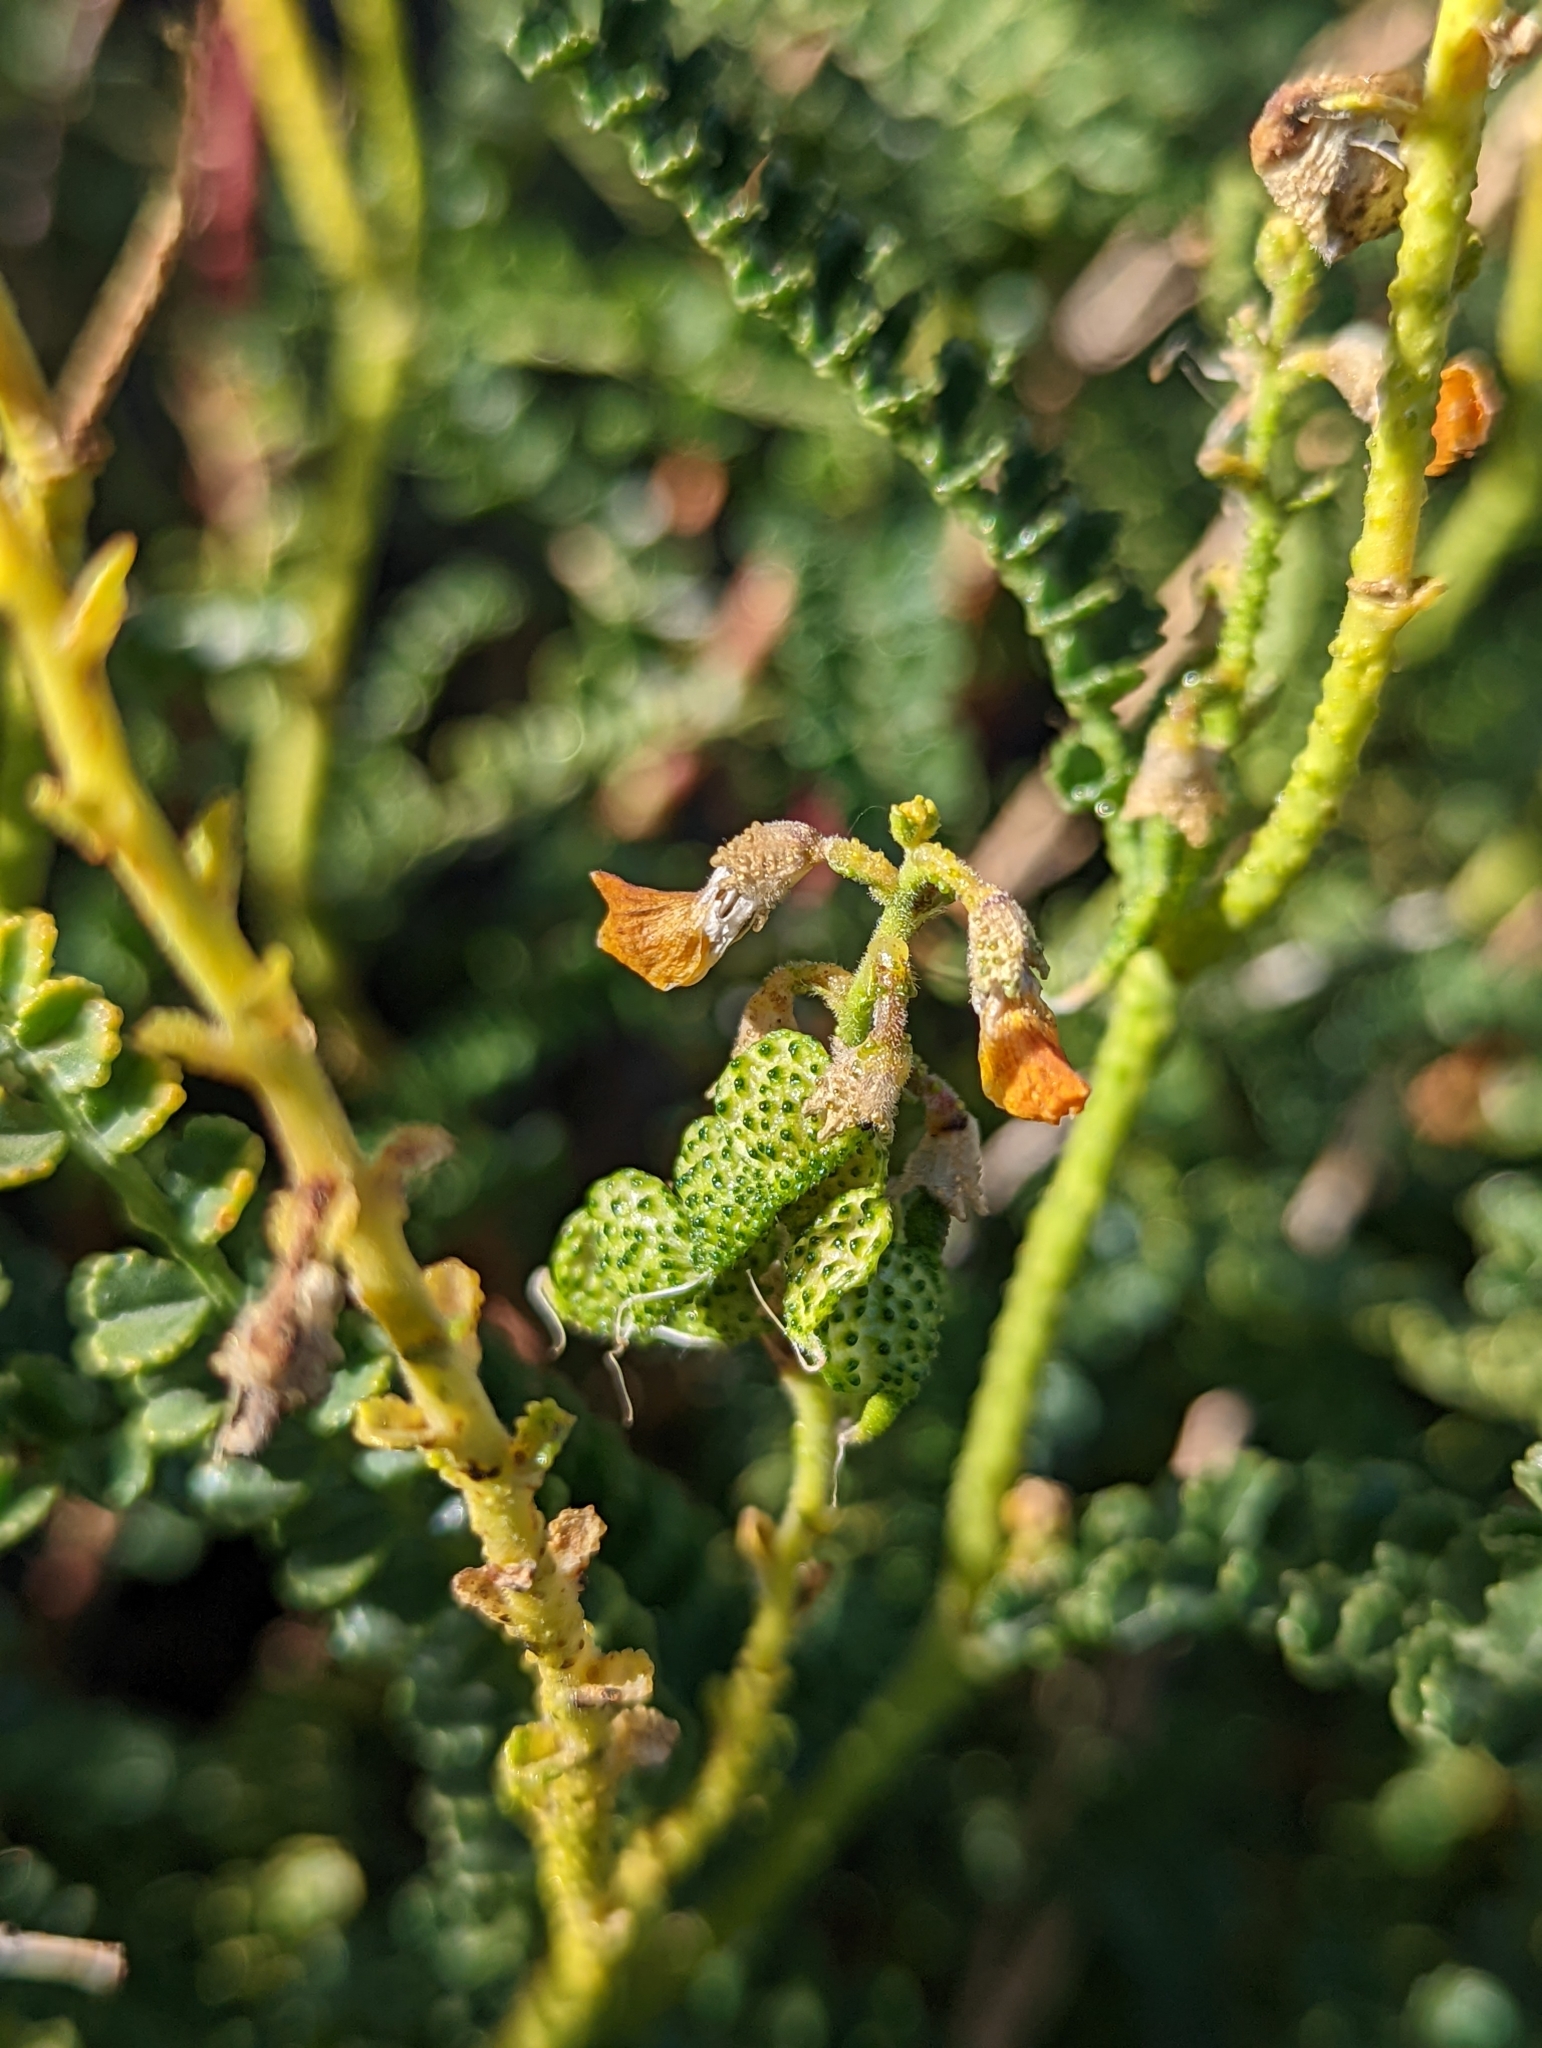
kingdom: Plantae
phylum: Tracheophyta
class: Magnoliopsida
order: Fabales
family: Fabaceae
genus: Adesmia
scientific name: Adesmia boronioides
